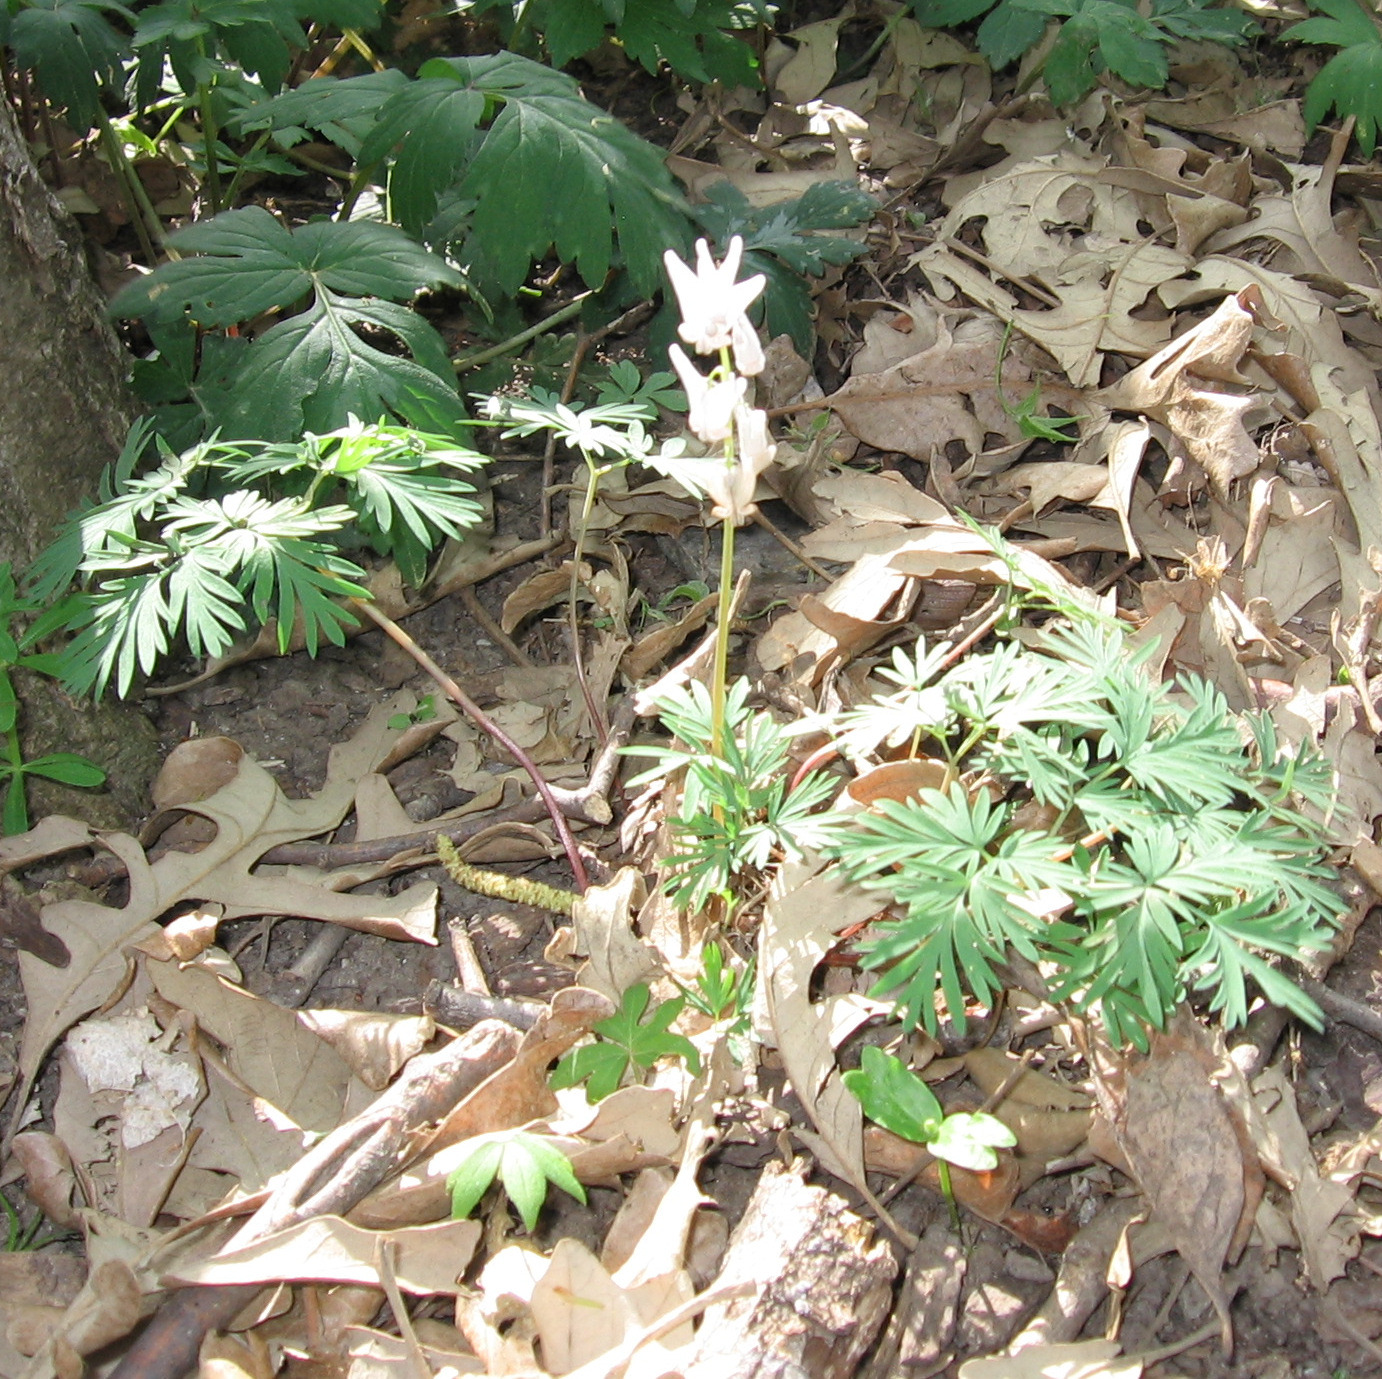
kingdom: Plantae
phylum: Tracheophyta
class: Magnoliopsida
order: Ranunculales
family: Papaveraceae
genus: Dicentra
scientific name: Dicentra cucullaria
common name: Dutchman's breeches
